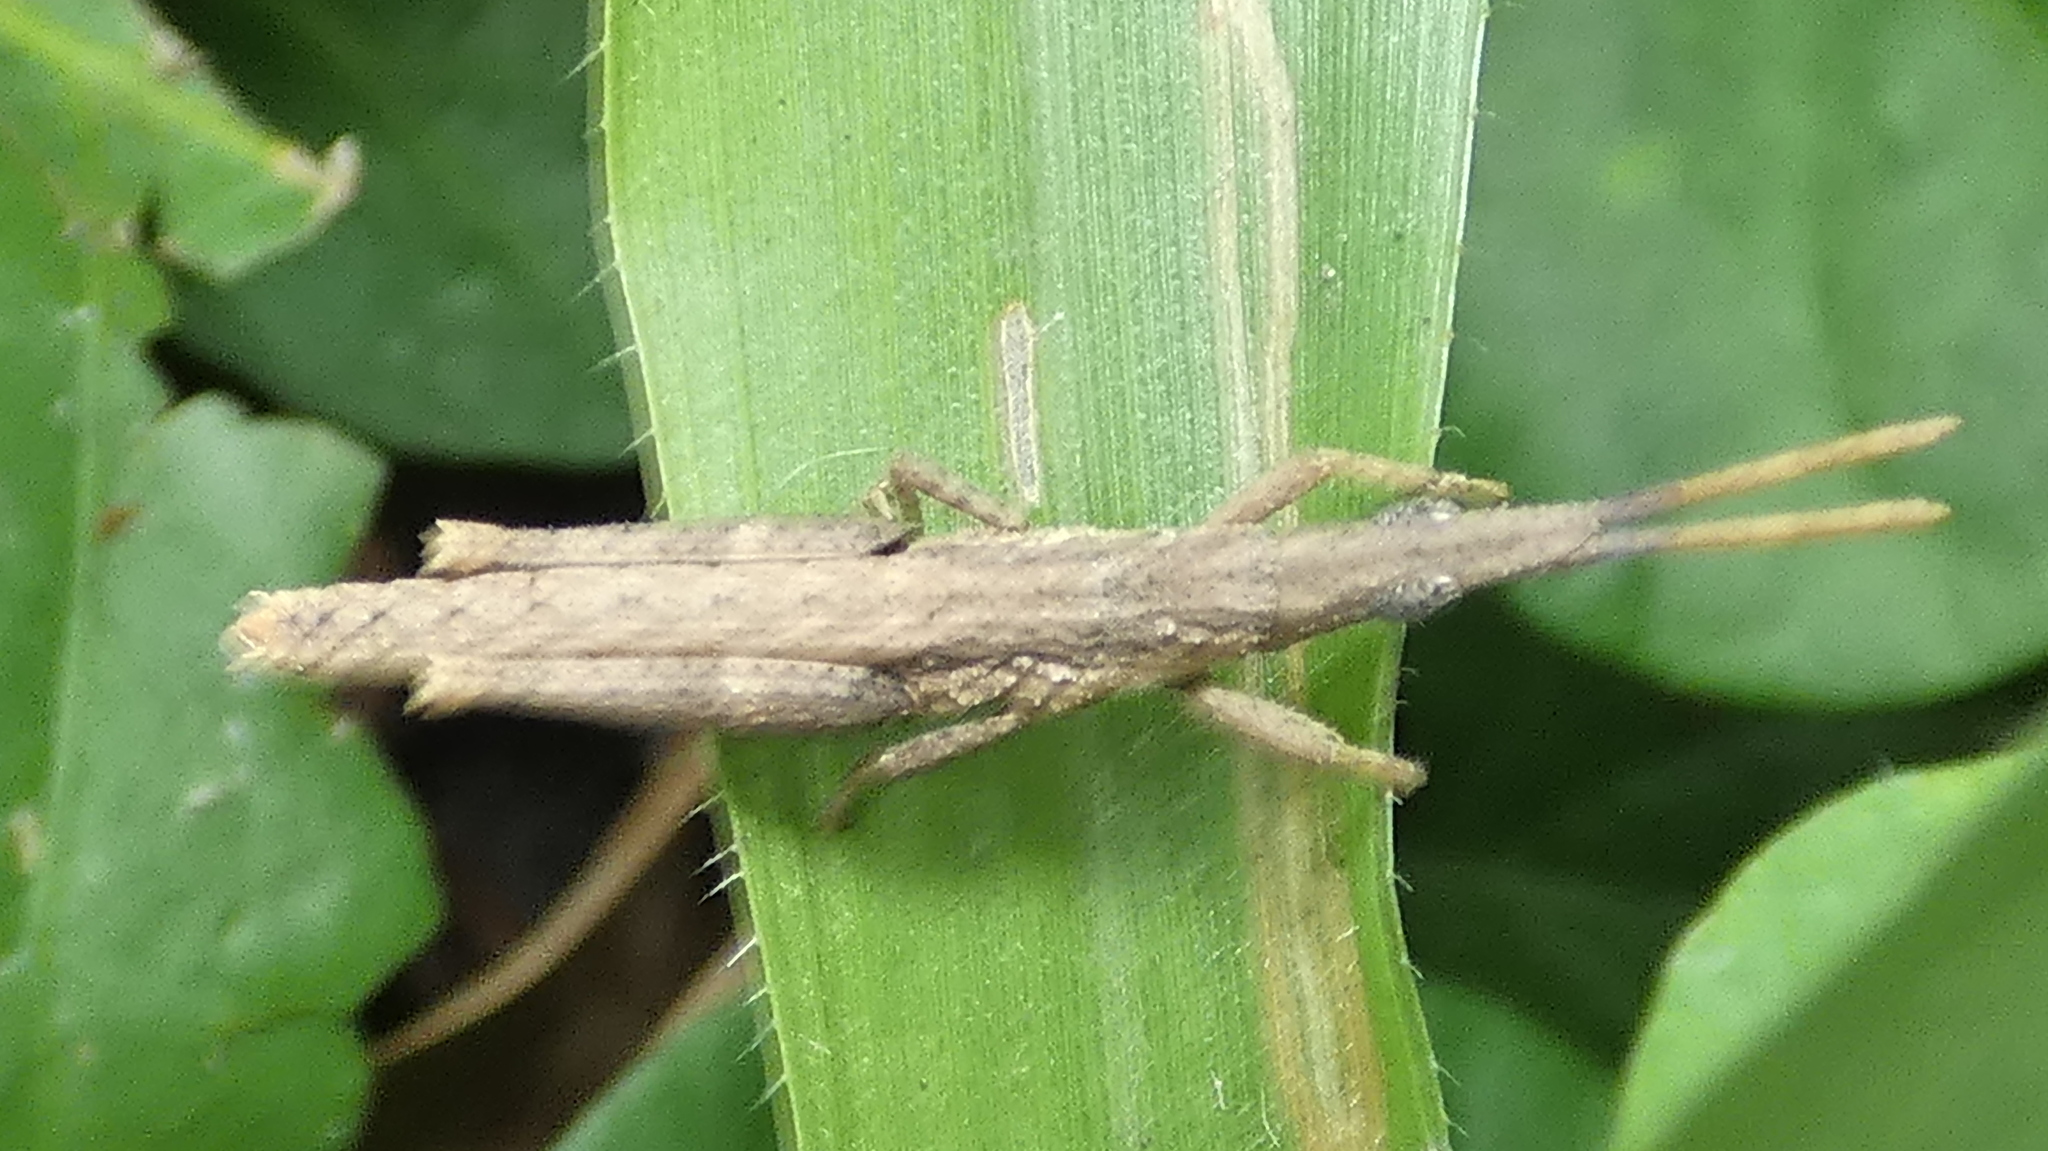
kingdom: Animalia
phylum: Arthropoda
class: Insecta
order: Orthoptera
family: Pyrgomorphidae
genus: Algete
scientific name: Algete brunneri
